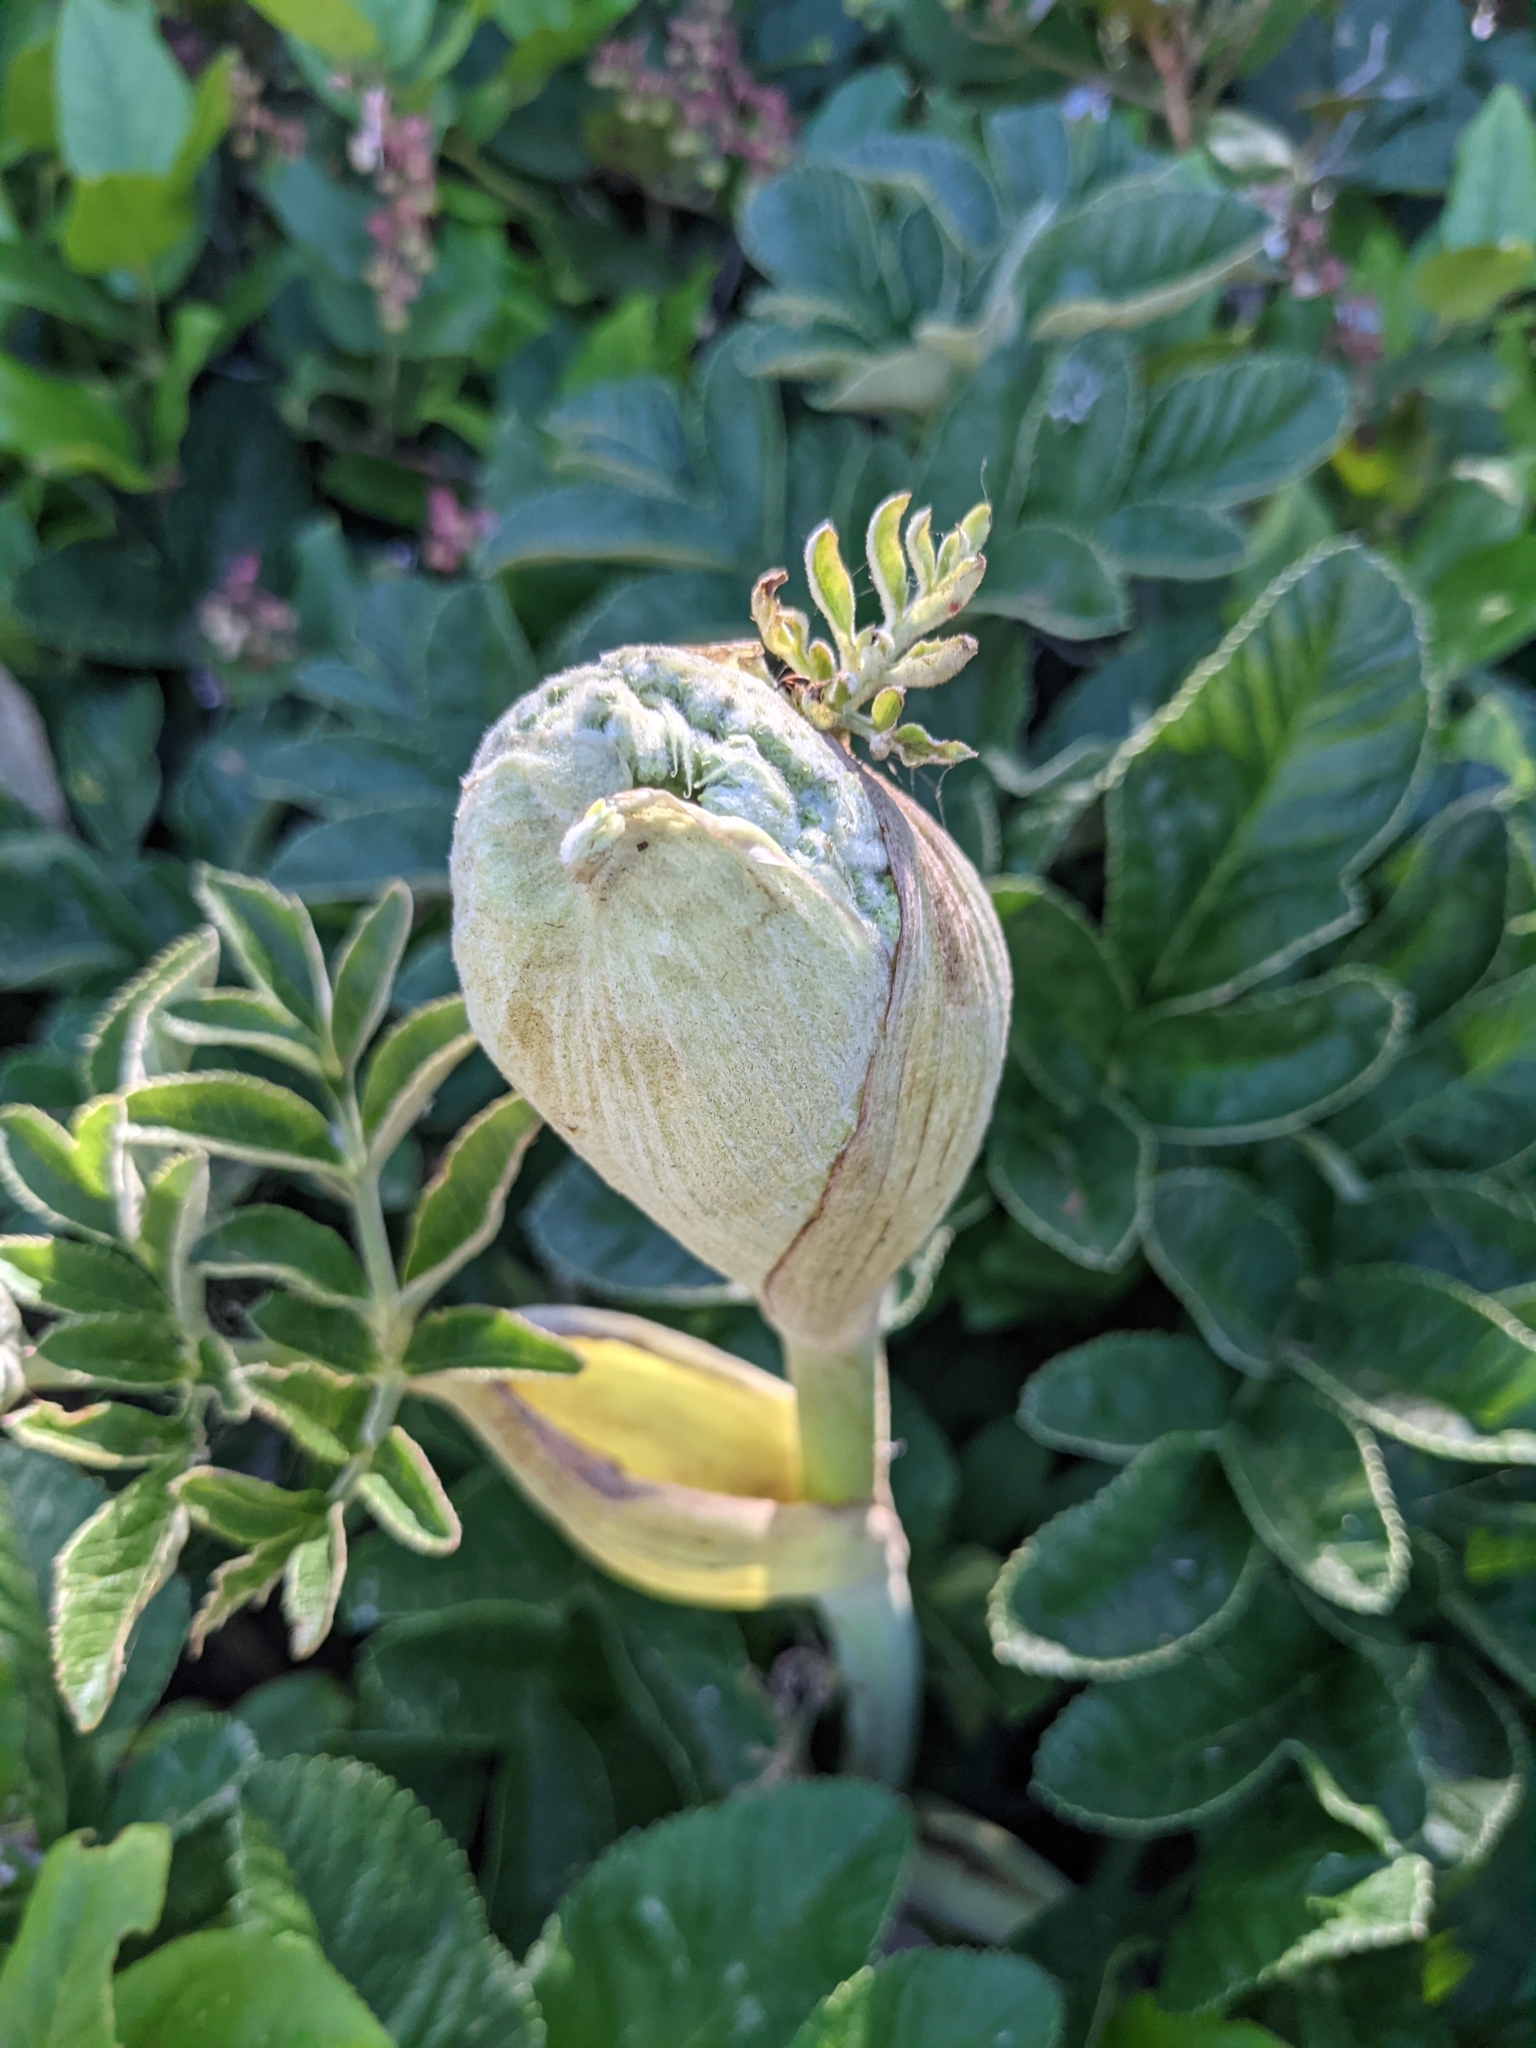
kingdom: Plantae
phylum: Tracheophyta
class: Magnoliopsida
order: Apiales
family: Apiaceae
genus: Angelica
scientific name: Angelica hendersonii
